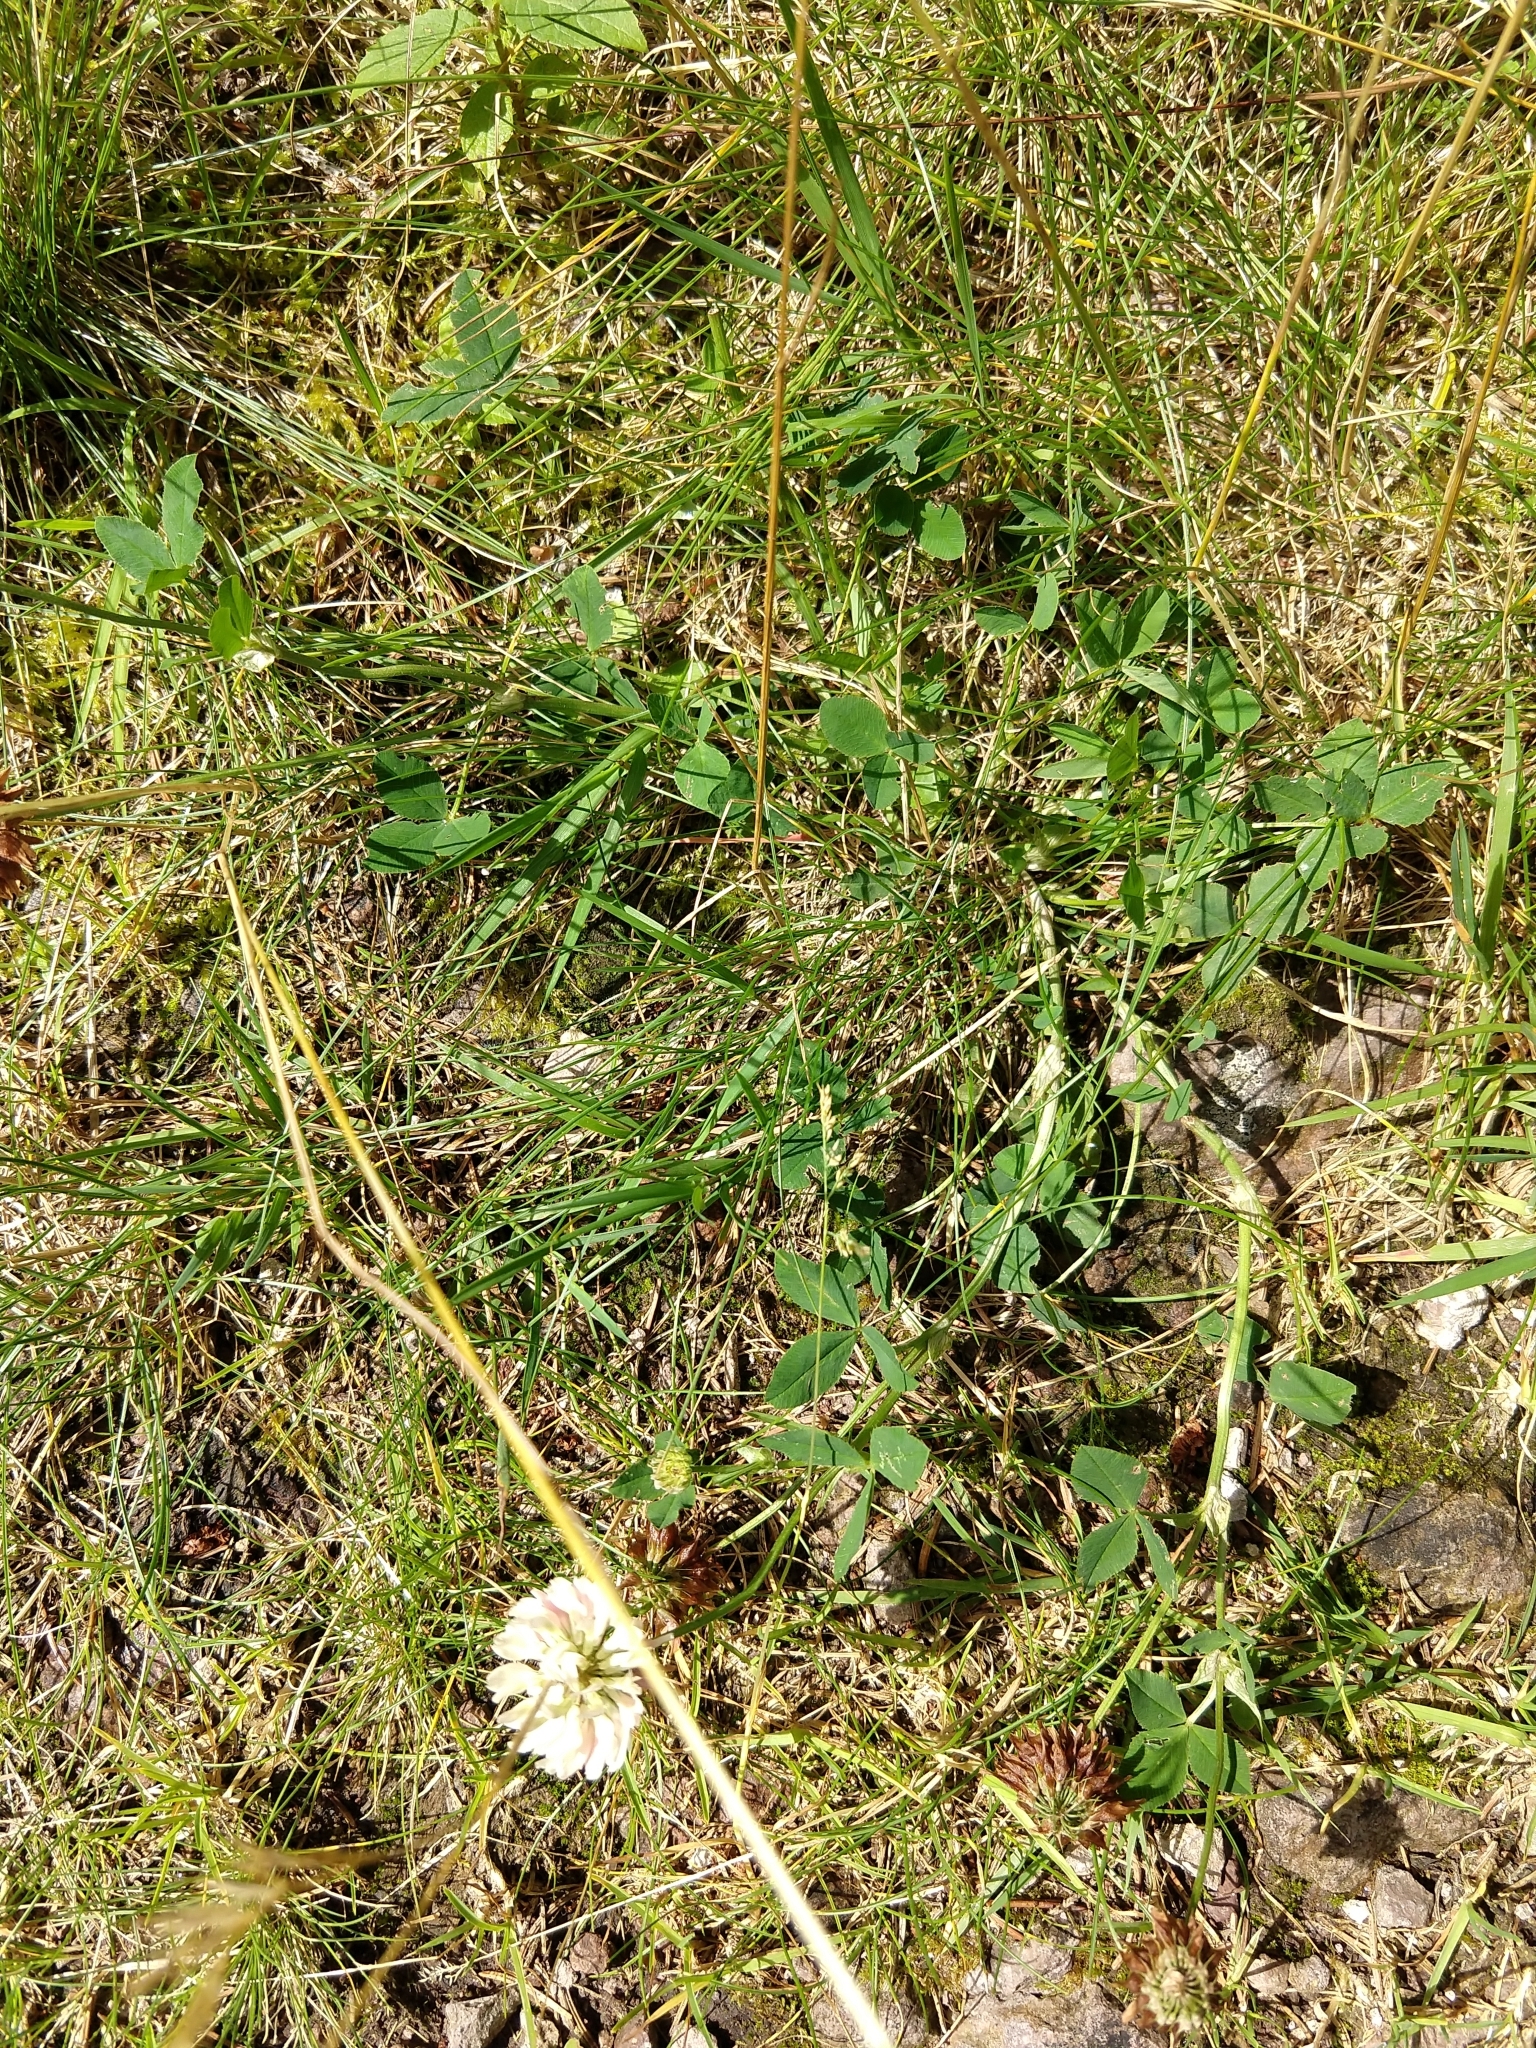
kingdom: Plantae
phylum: Tracheophyta
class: Magnoliopsida
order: Fabales
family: Fabaceae
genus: Trifolium
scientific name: Trifolium repens
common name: White clover
